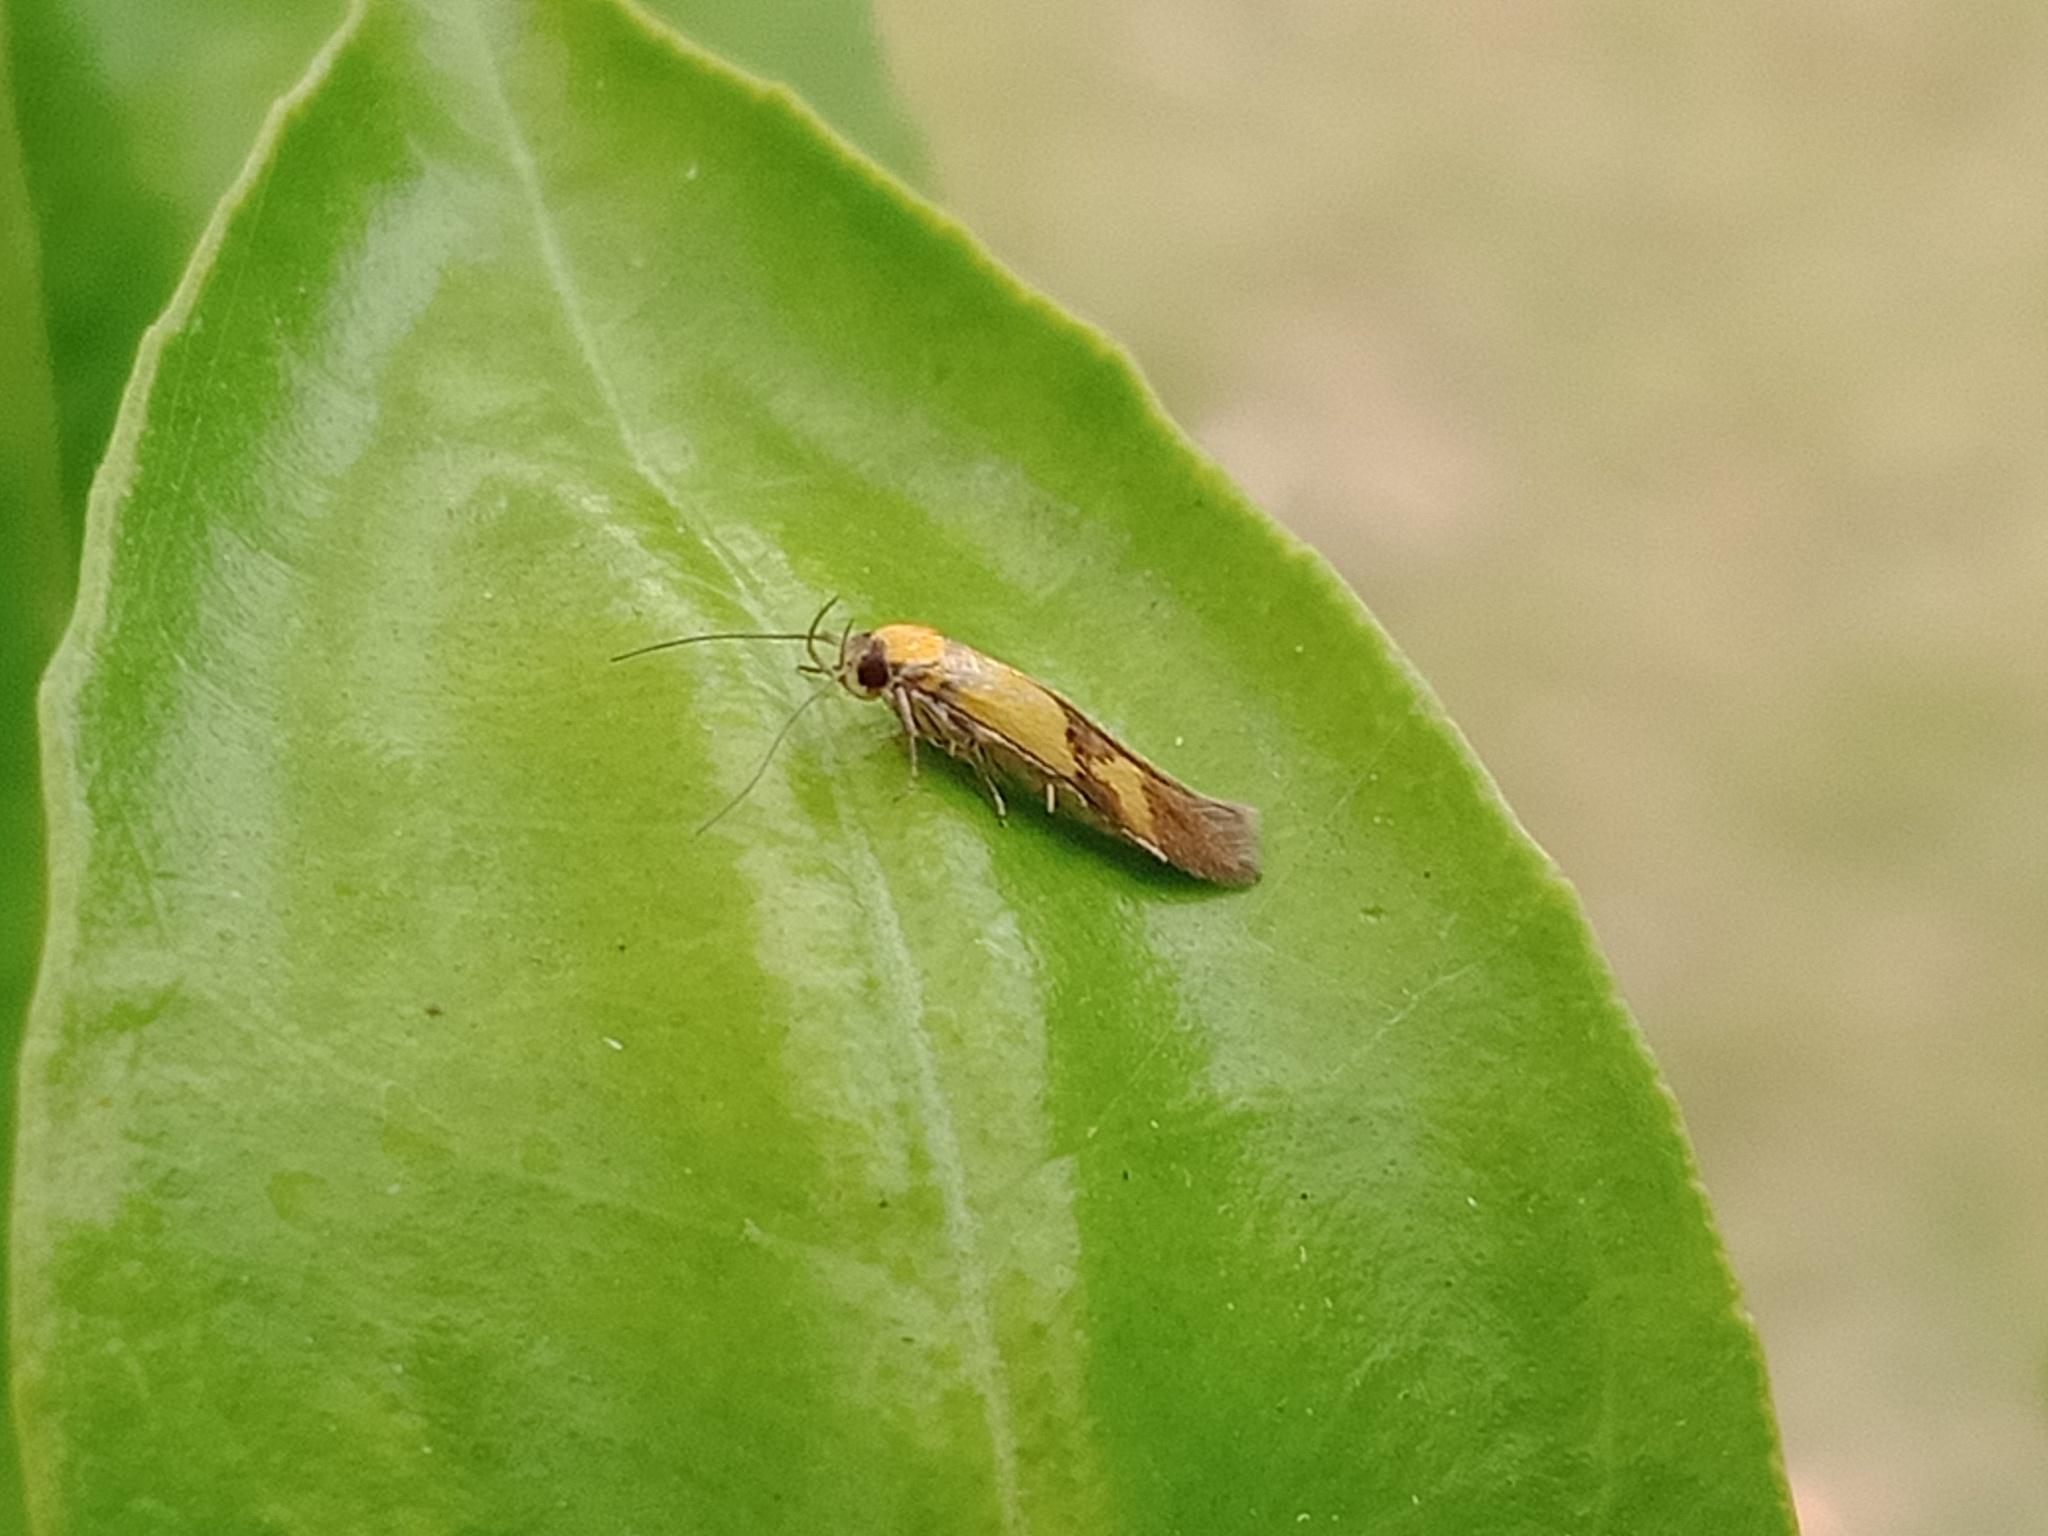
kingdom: Animalia
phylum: Arthropoda
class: Insecta
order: Lepidoptera
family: Stathmopodidae
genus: Stathmopoda
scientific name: Stathmopoda auriferella
